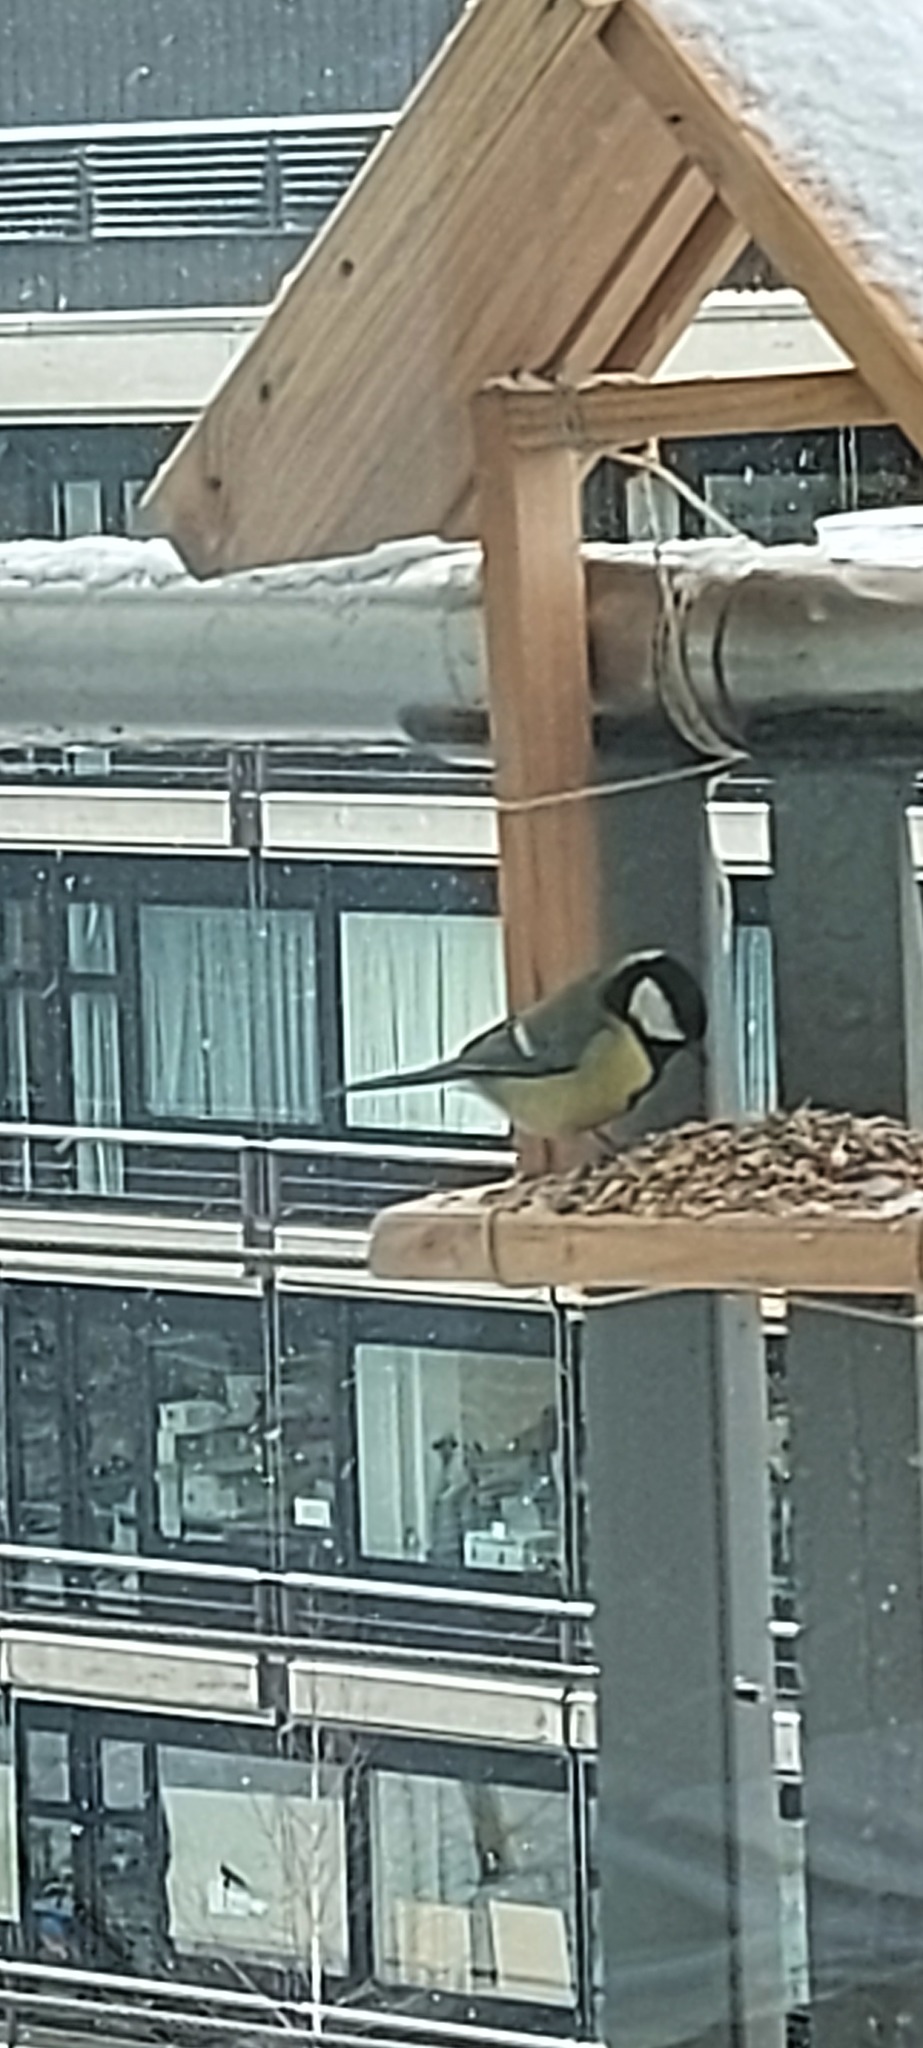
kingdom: Animalia
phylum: Chordata
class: Aves
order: Passeriformes
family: Paridae
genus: Parus
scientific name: Parus major
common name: Great tit
